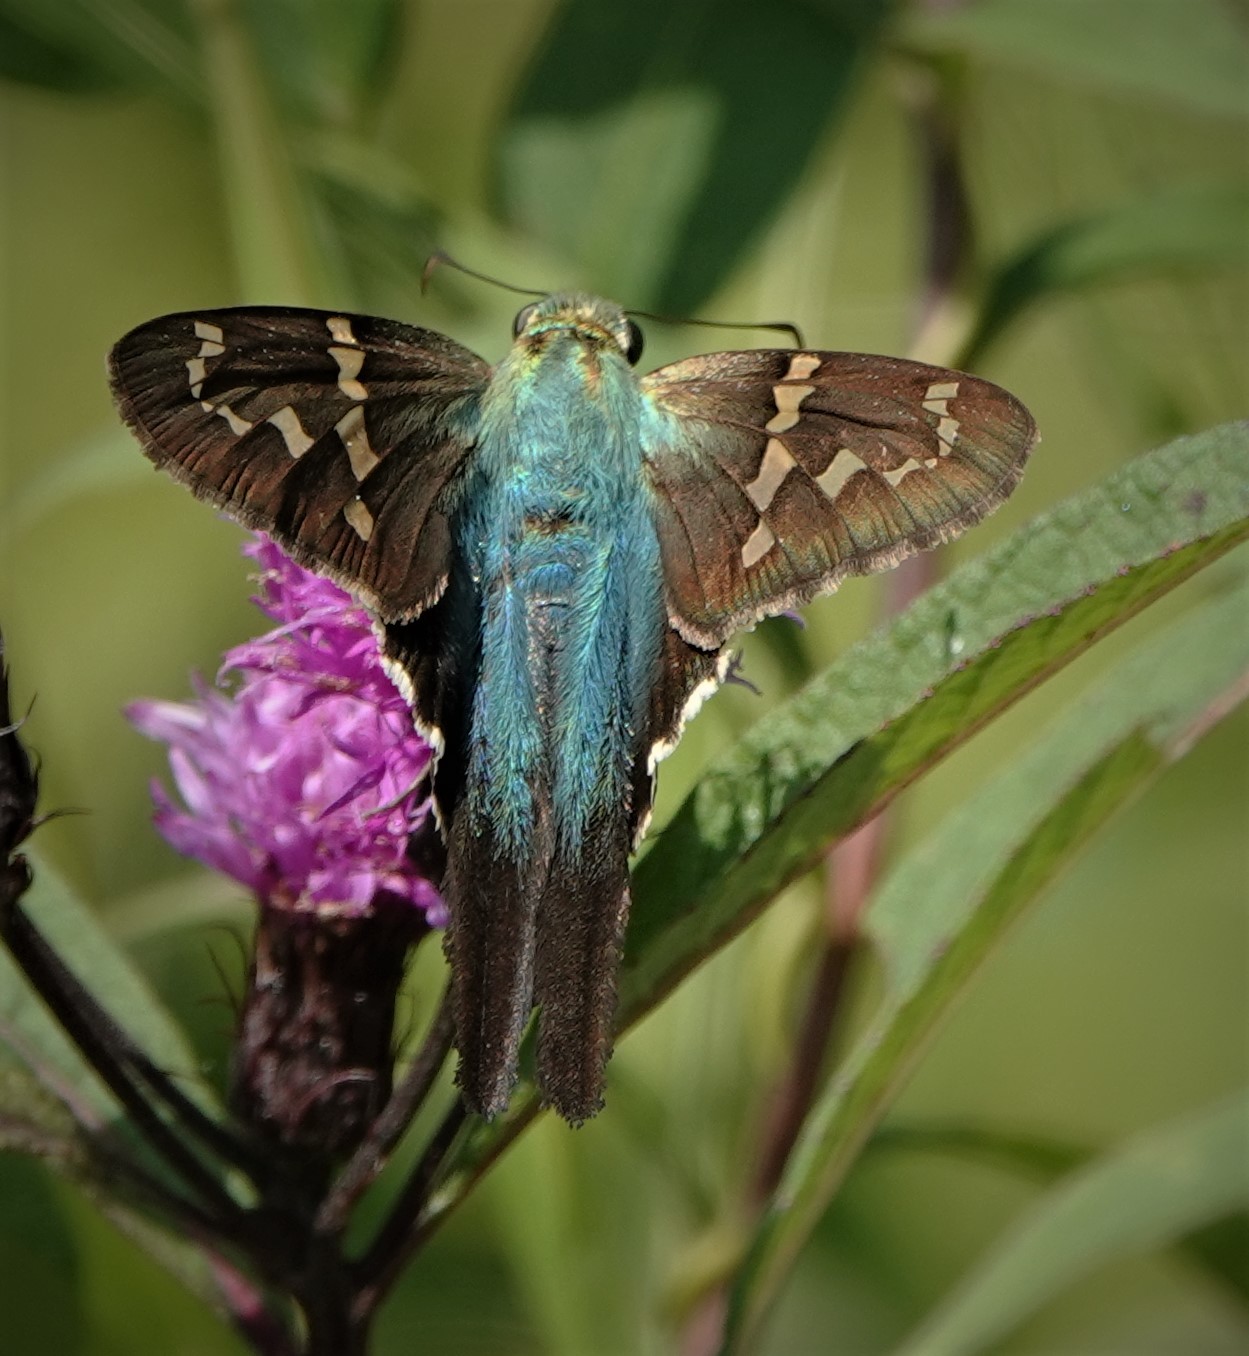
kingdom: Animalia
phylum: Arthropoda
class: Insecta
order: Lepidoptera
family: Hesperiidae
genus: Urbanus
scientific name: Urbanus proteus
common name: Long-tailed skipper
